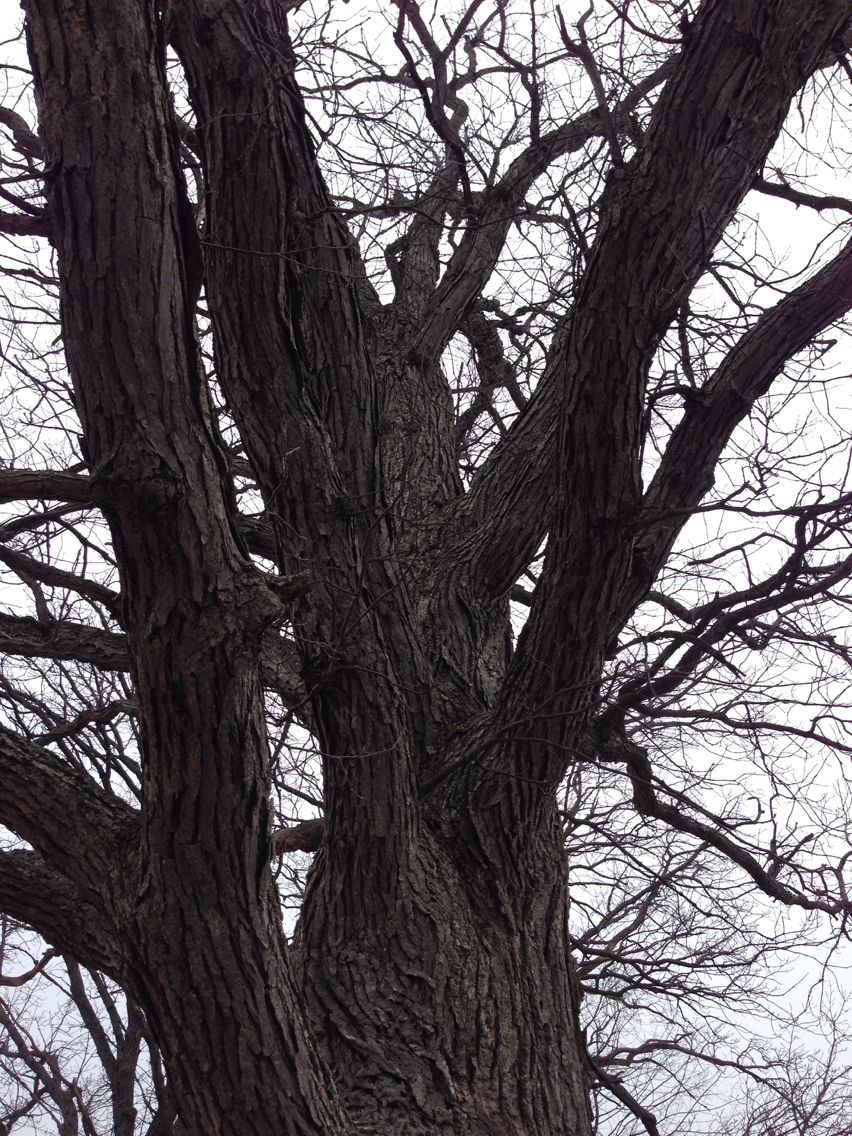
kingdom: Plantae
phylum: Tracheophyta
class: Magnoliopsida
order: Fagales
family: Fagaceae
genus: Quercus
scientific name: Quercus macrocarpa
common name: Bur oak
